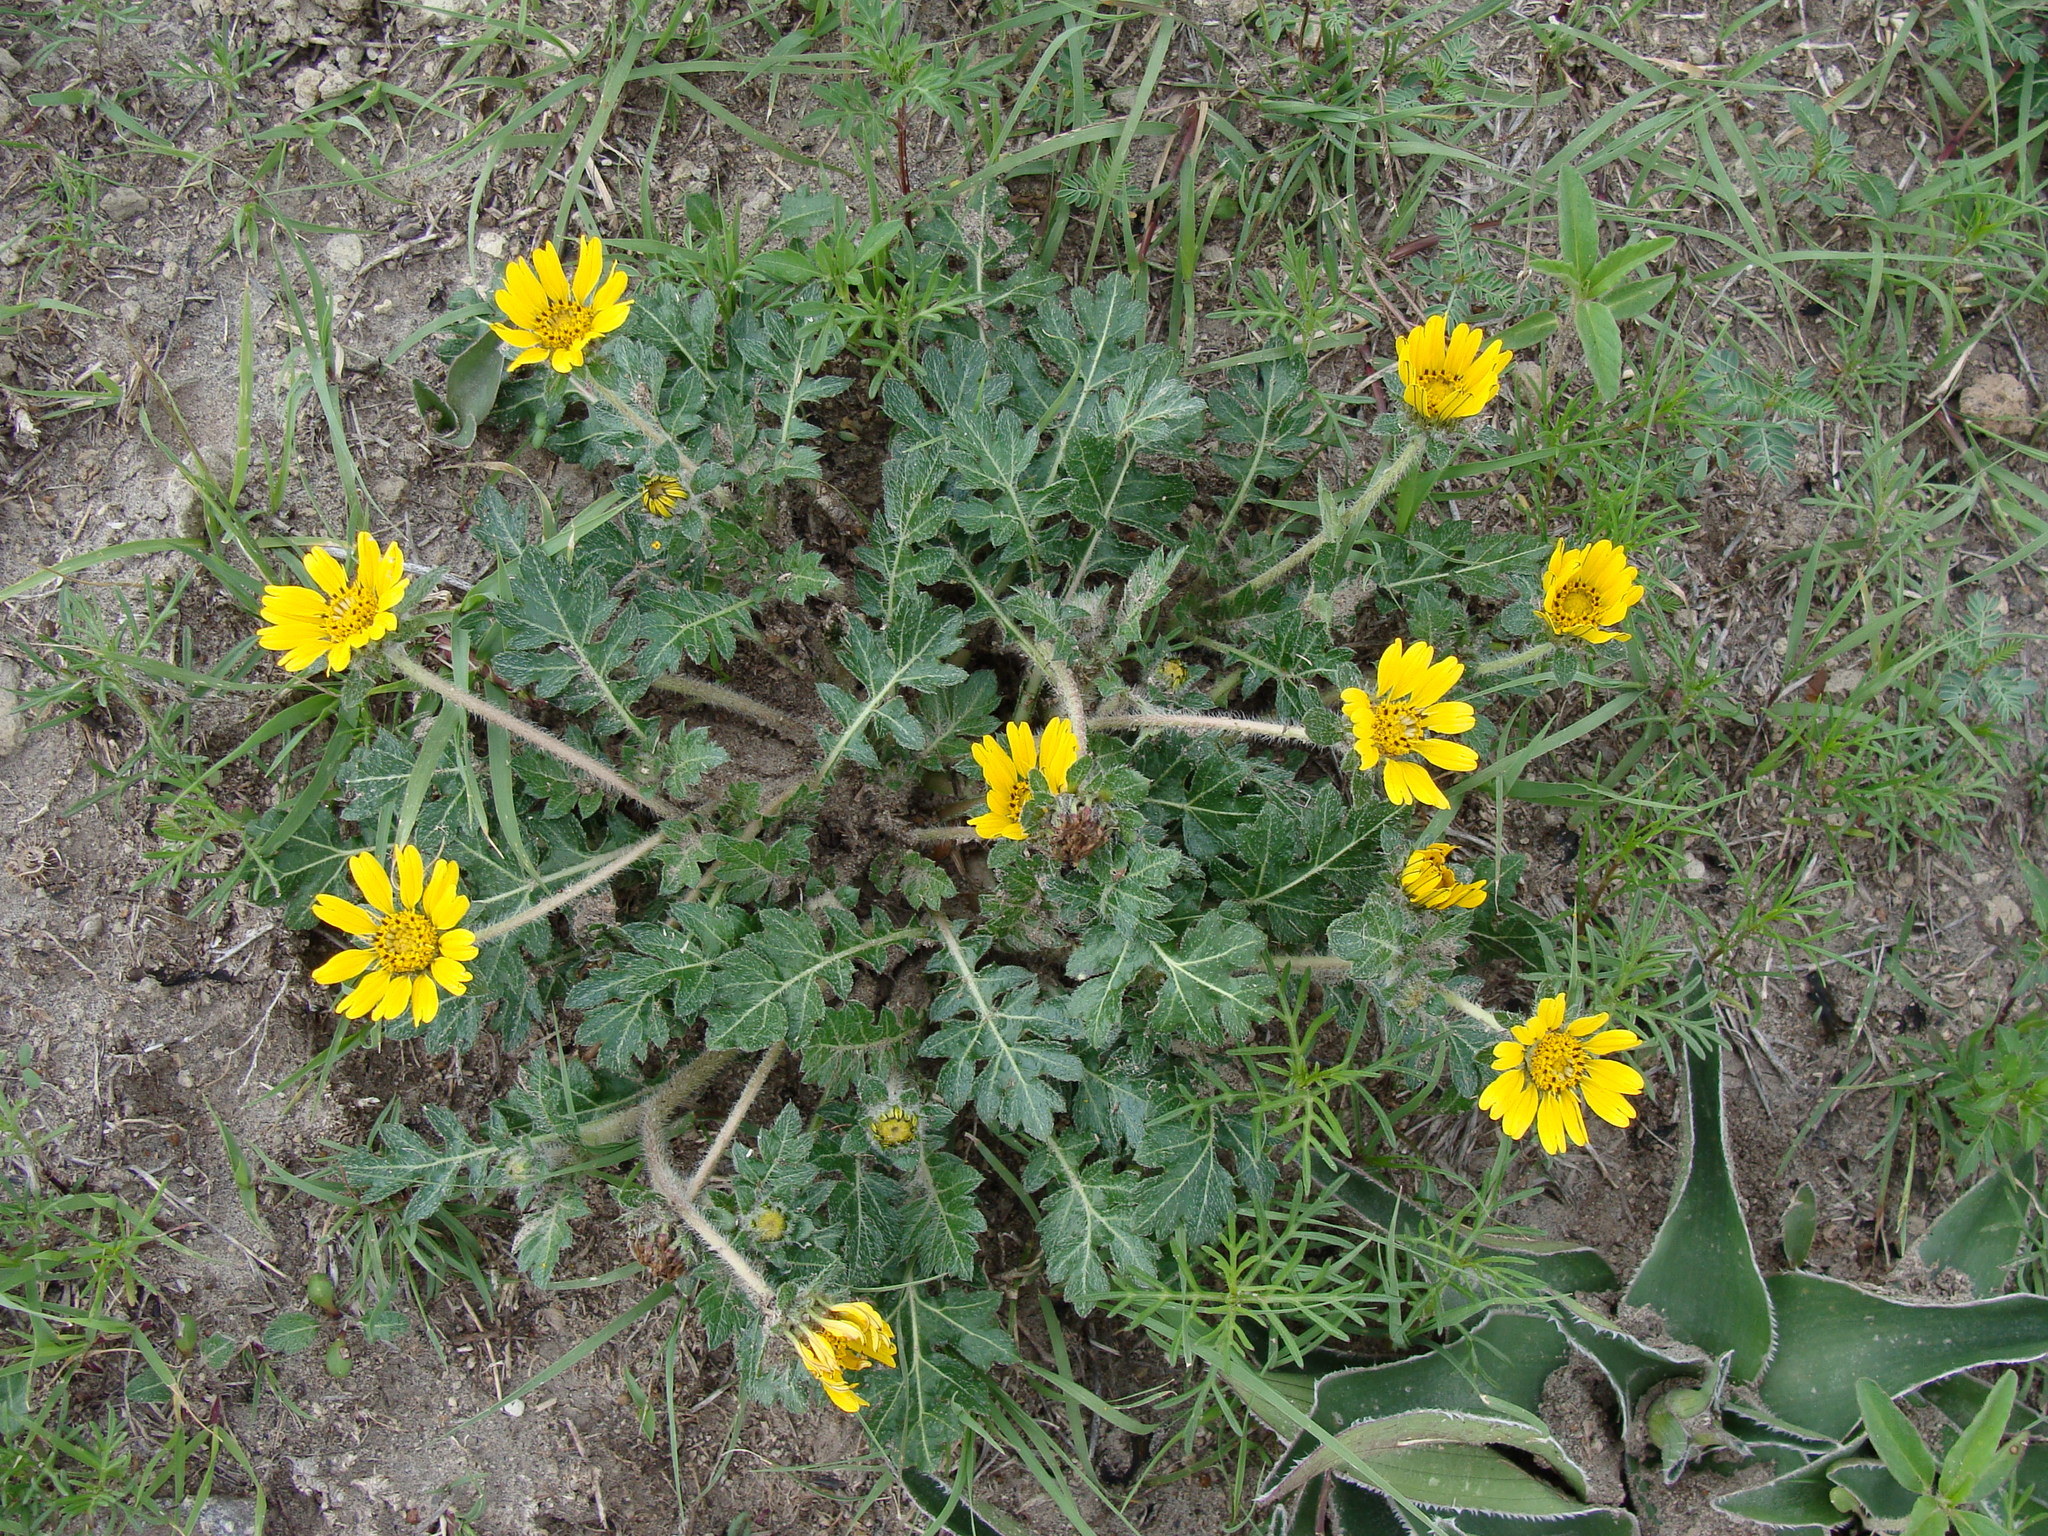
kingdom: Plantae
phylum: Tracheophyta
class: Magnoliopsida
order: Asterales
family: Asteraceae
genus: Dugesia
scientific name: Dugesia mexicana
